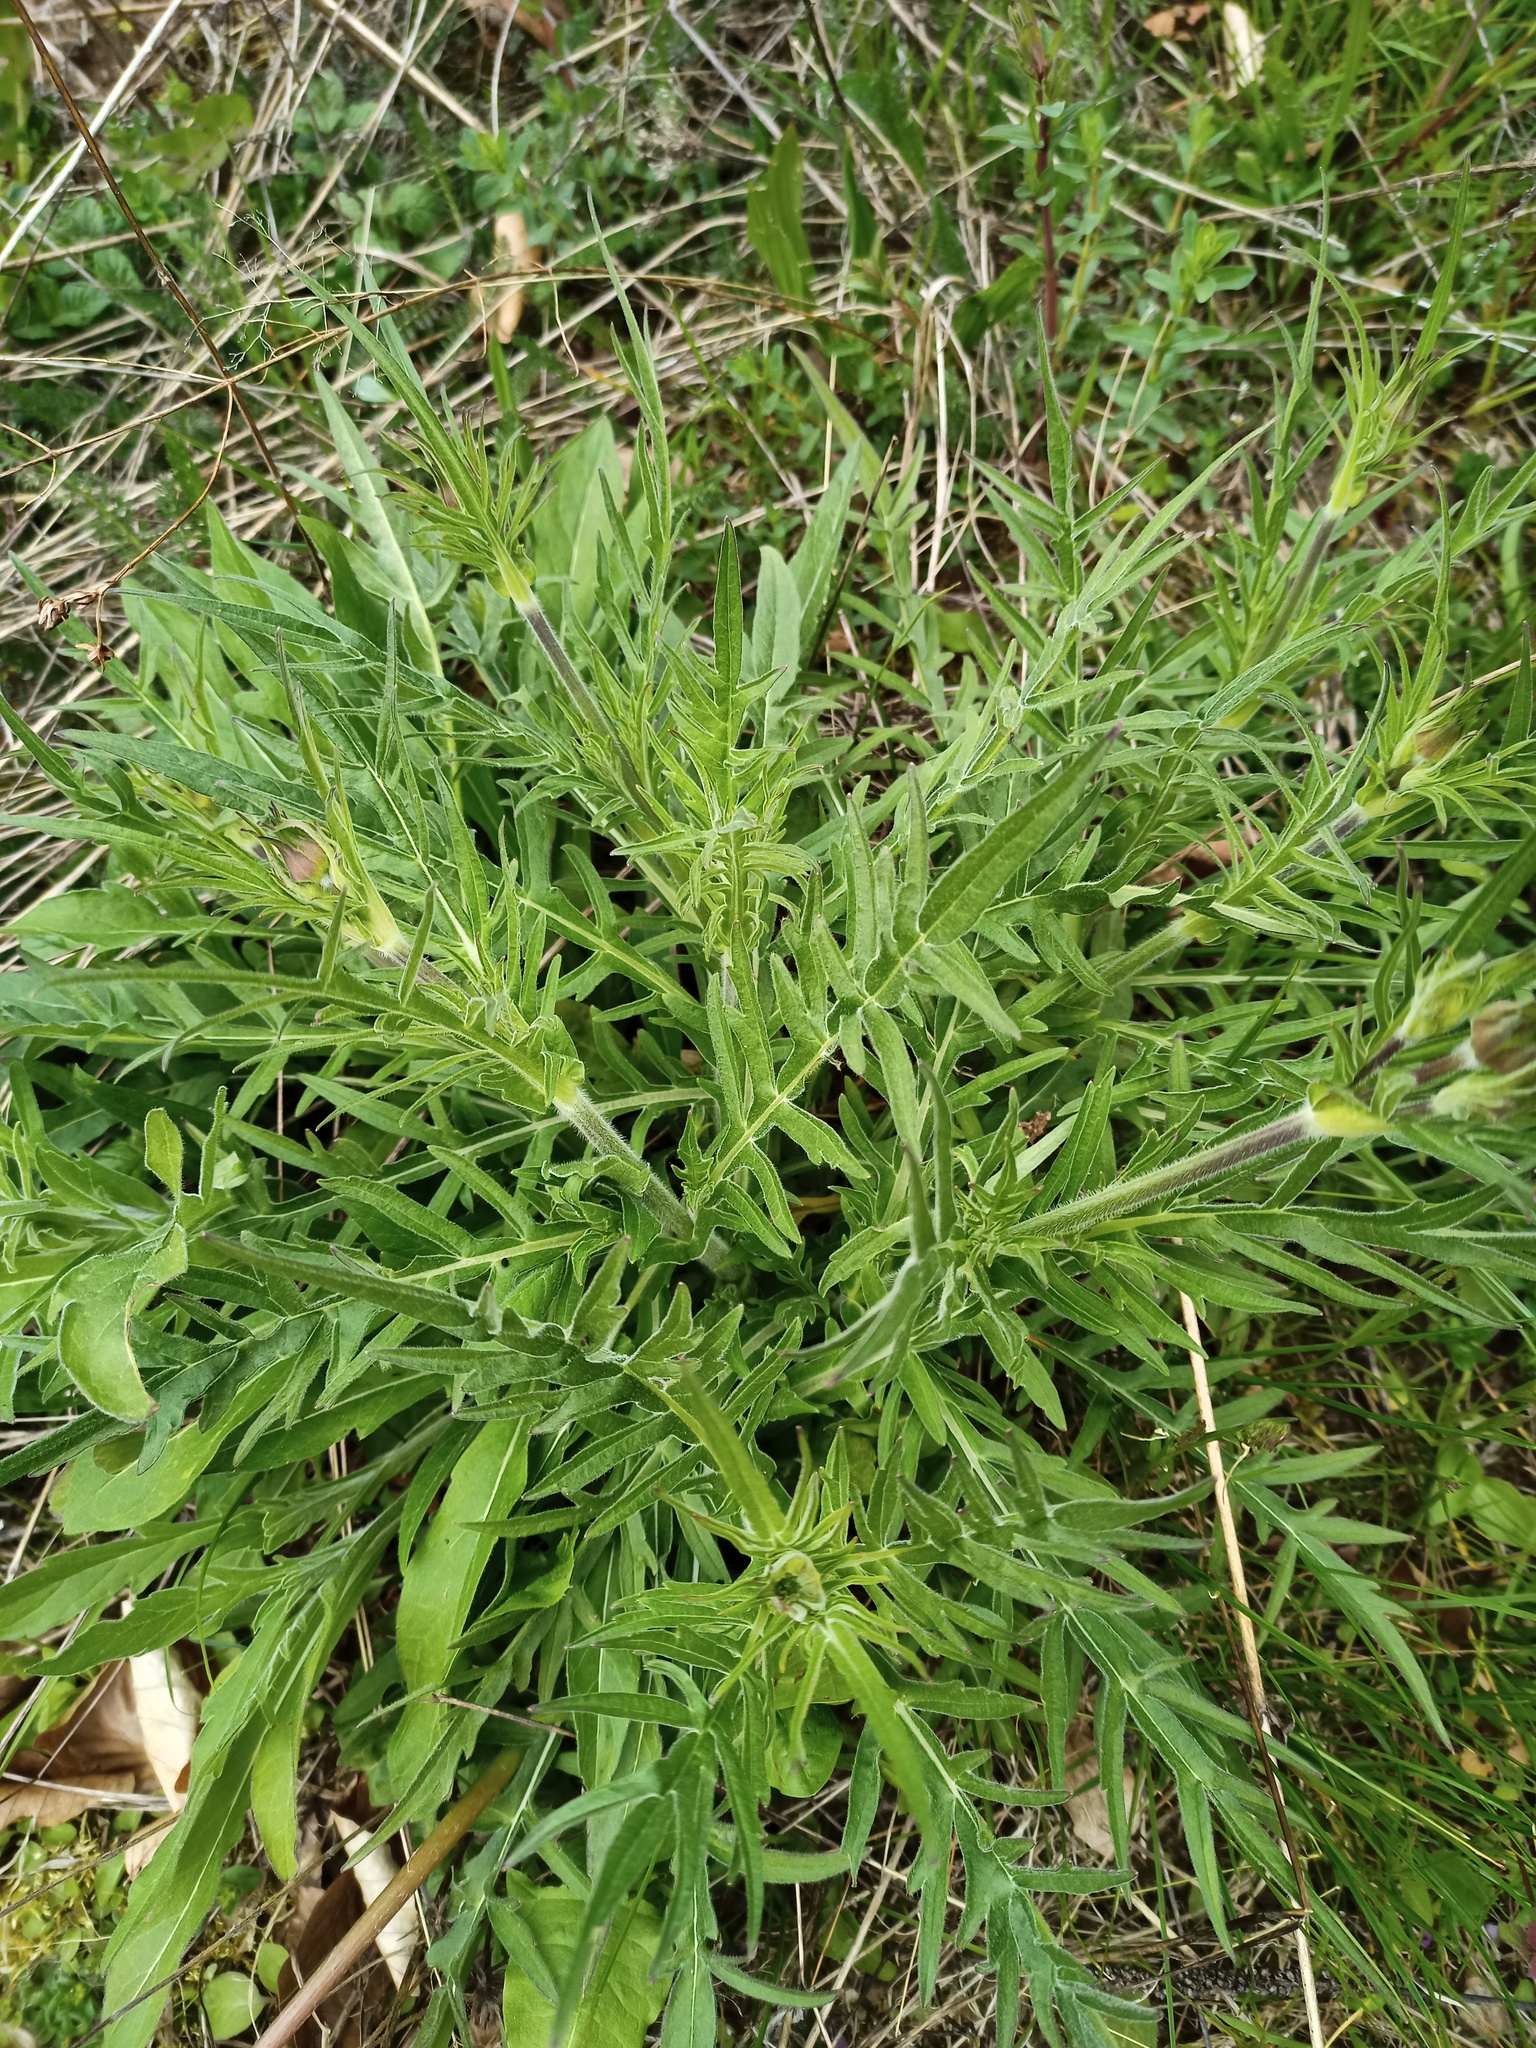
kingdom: Plantae
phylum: Tracheophyta
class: Magnoliopsida
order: Dipsacales
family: Caprifoliaceae
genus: Knautia
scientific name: Knautia arvensis
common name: Field scabiosa
